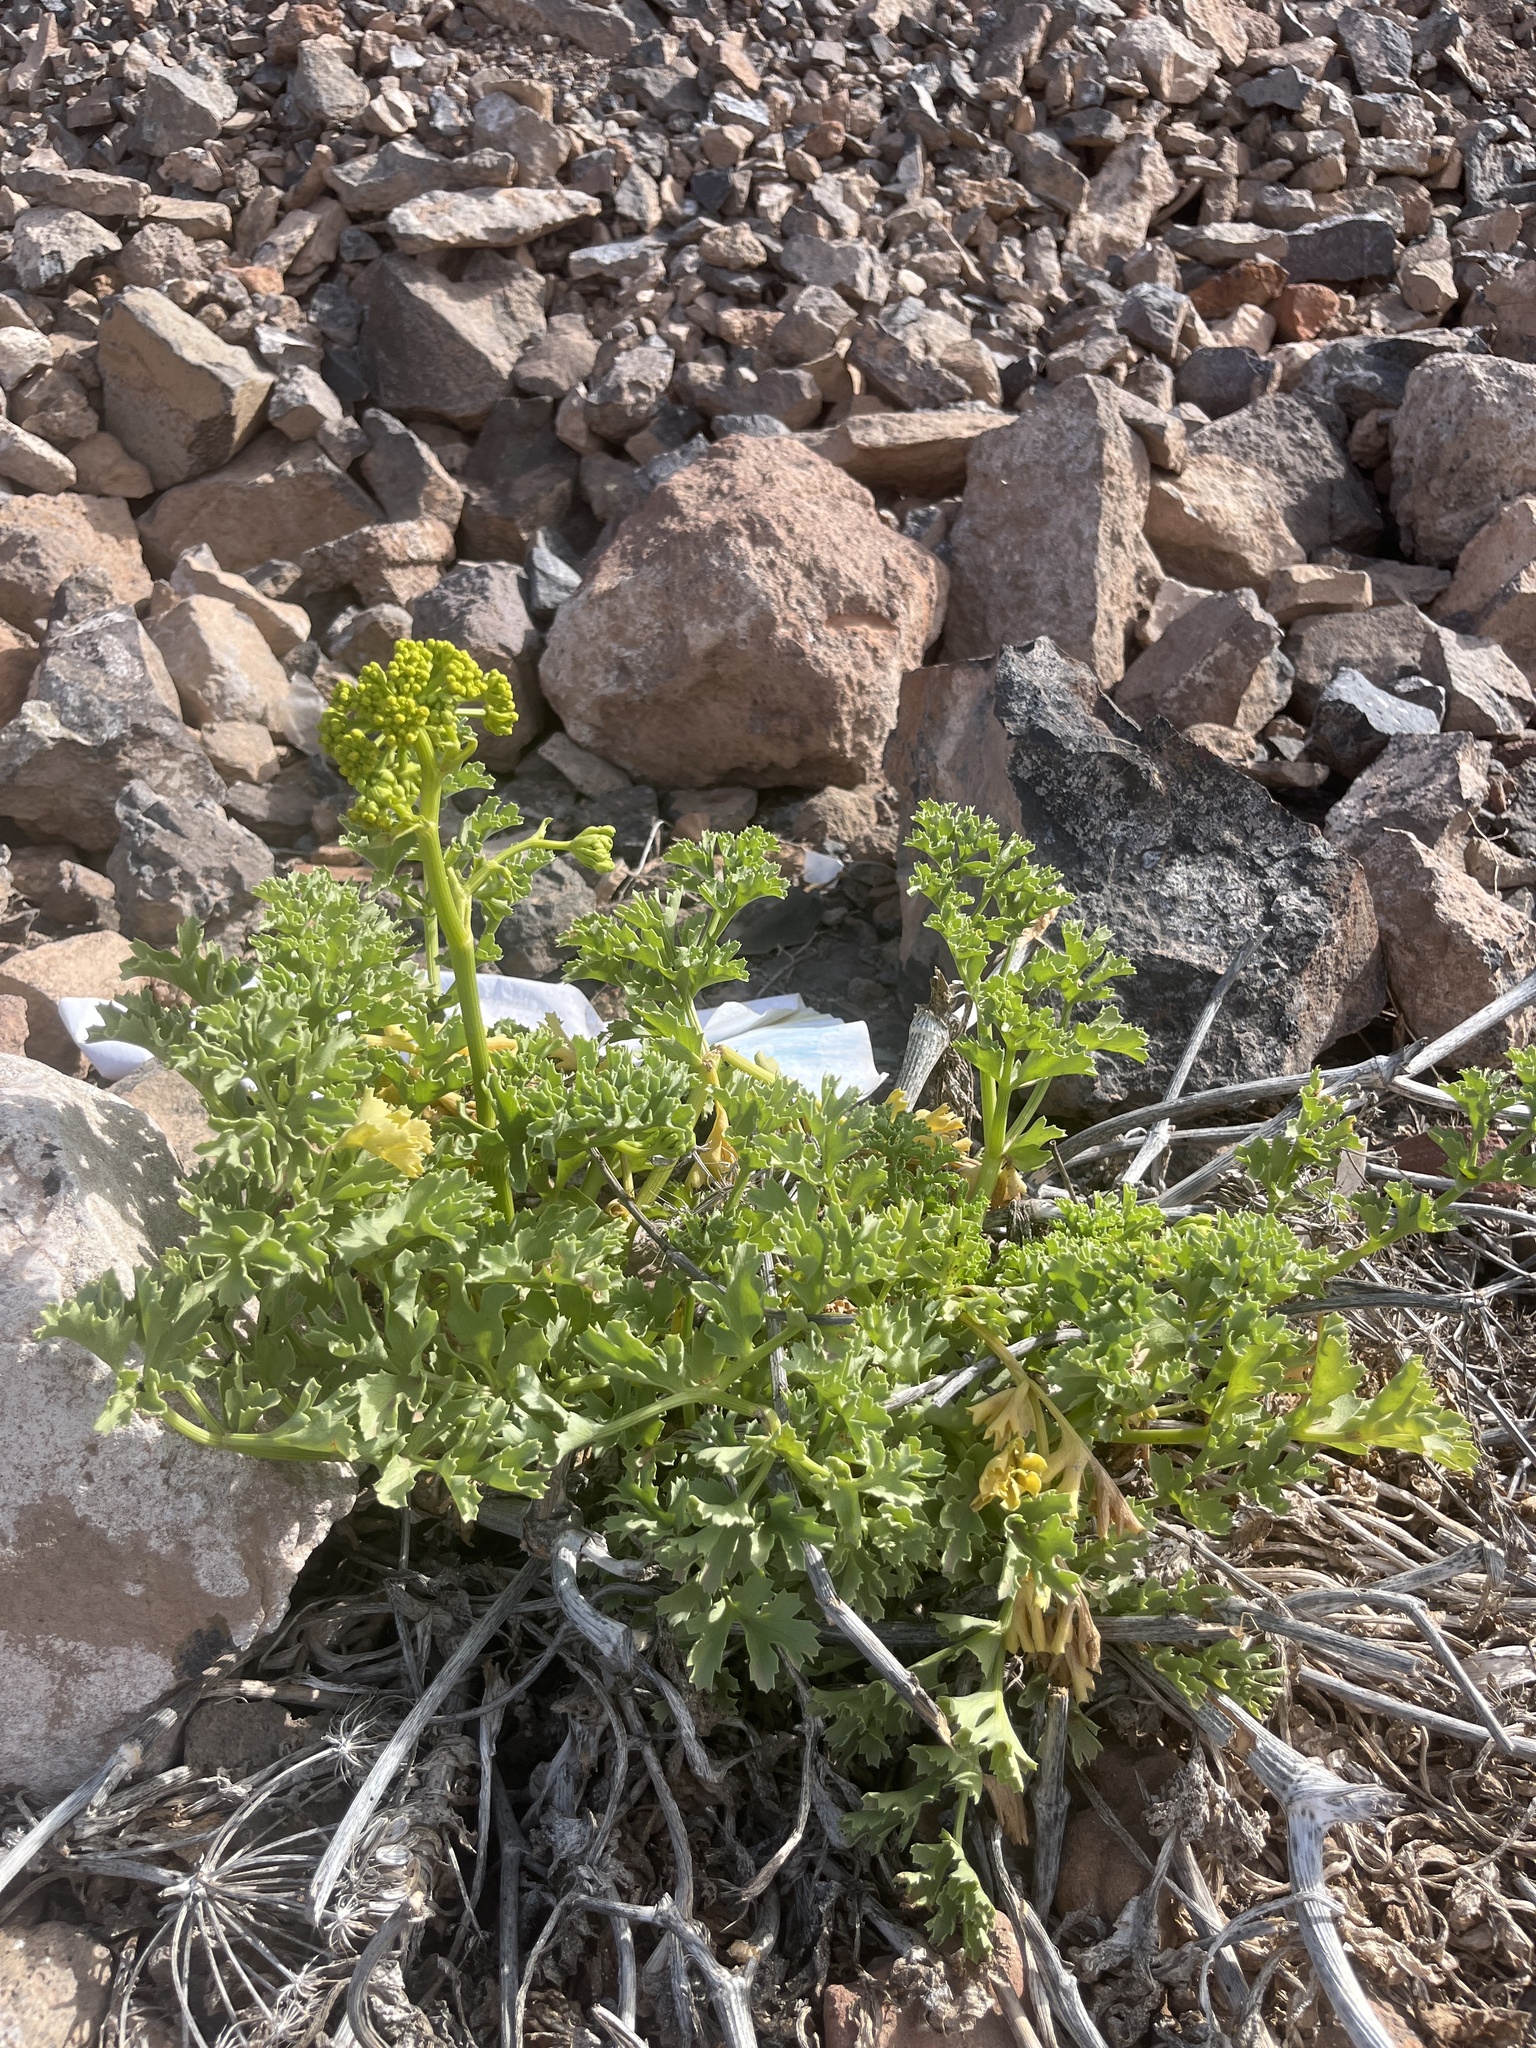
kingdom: Plantae
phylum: Tracheophyta
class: Magnoliopsida
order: Apiales
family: Apiaceae
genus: Astydamia
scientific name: Astydamia latifolia
